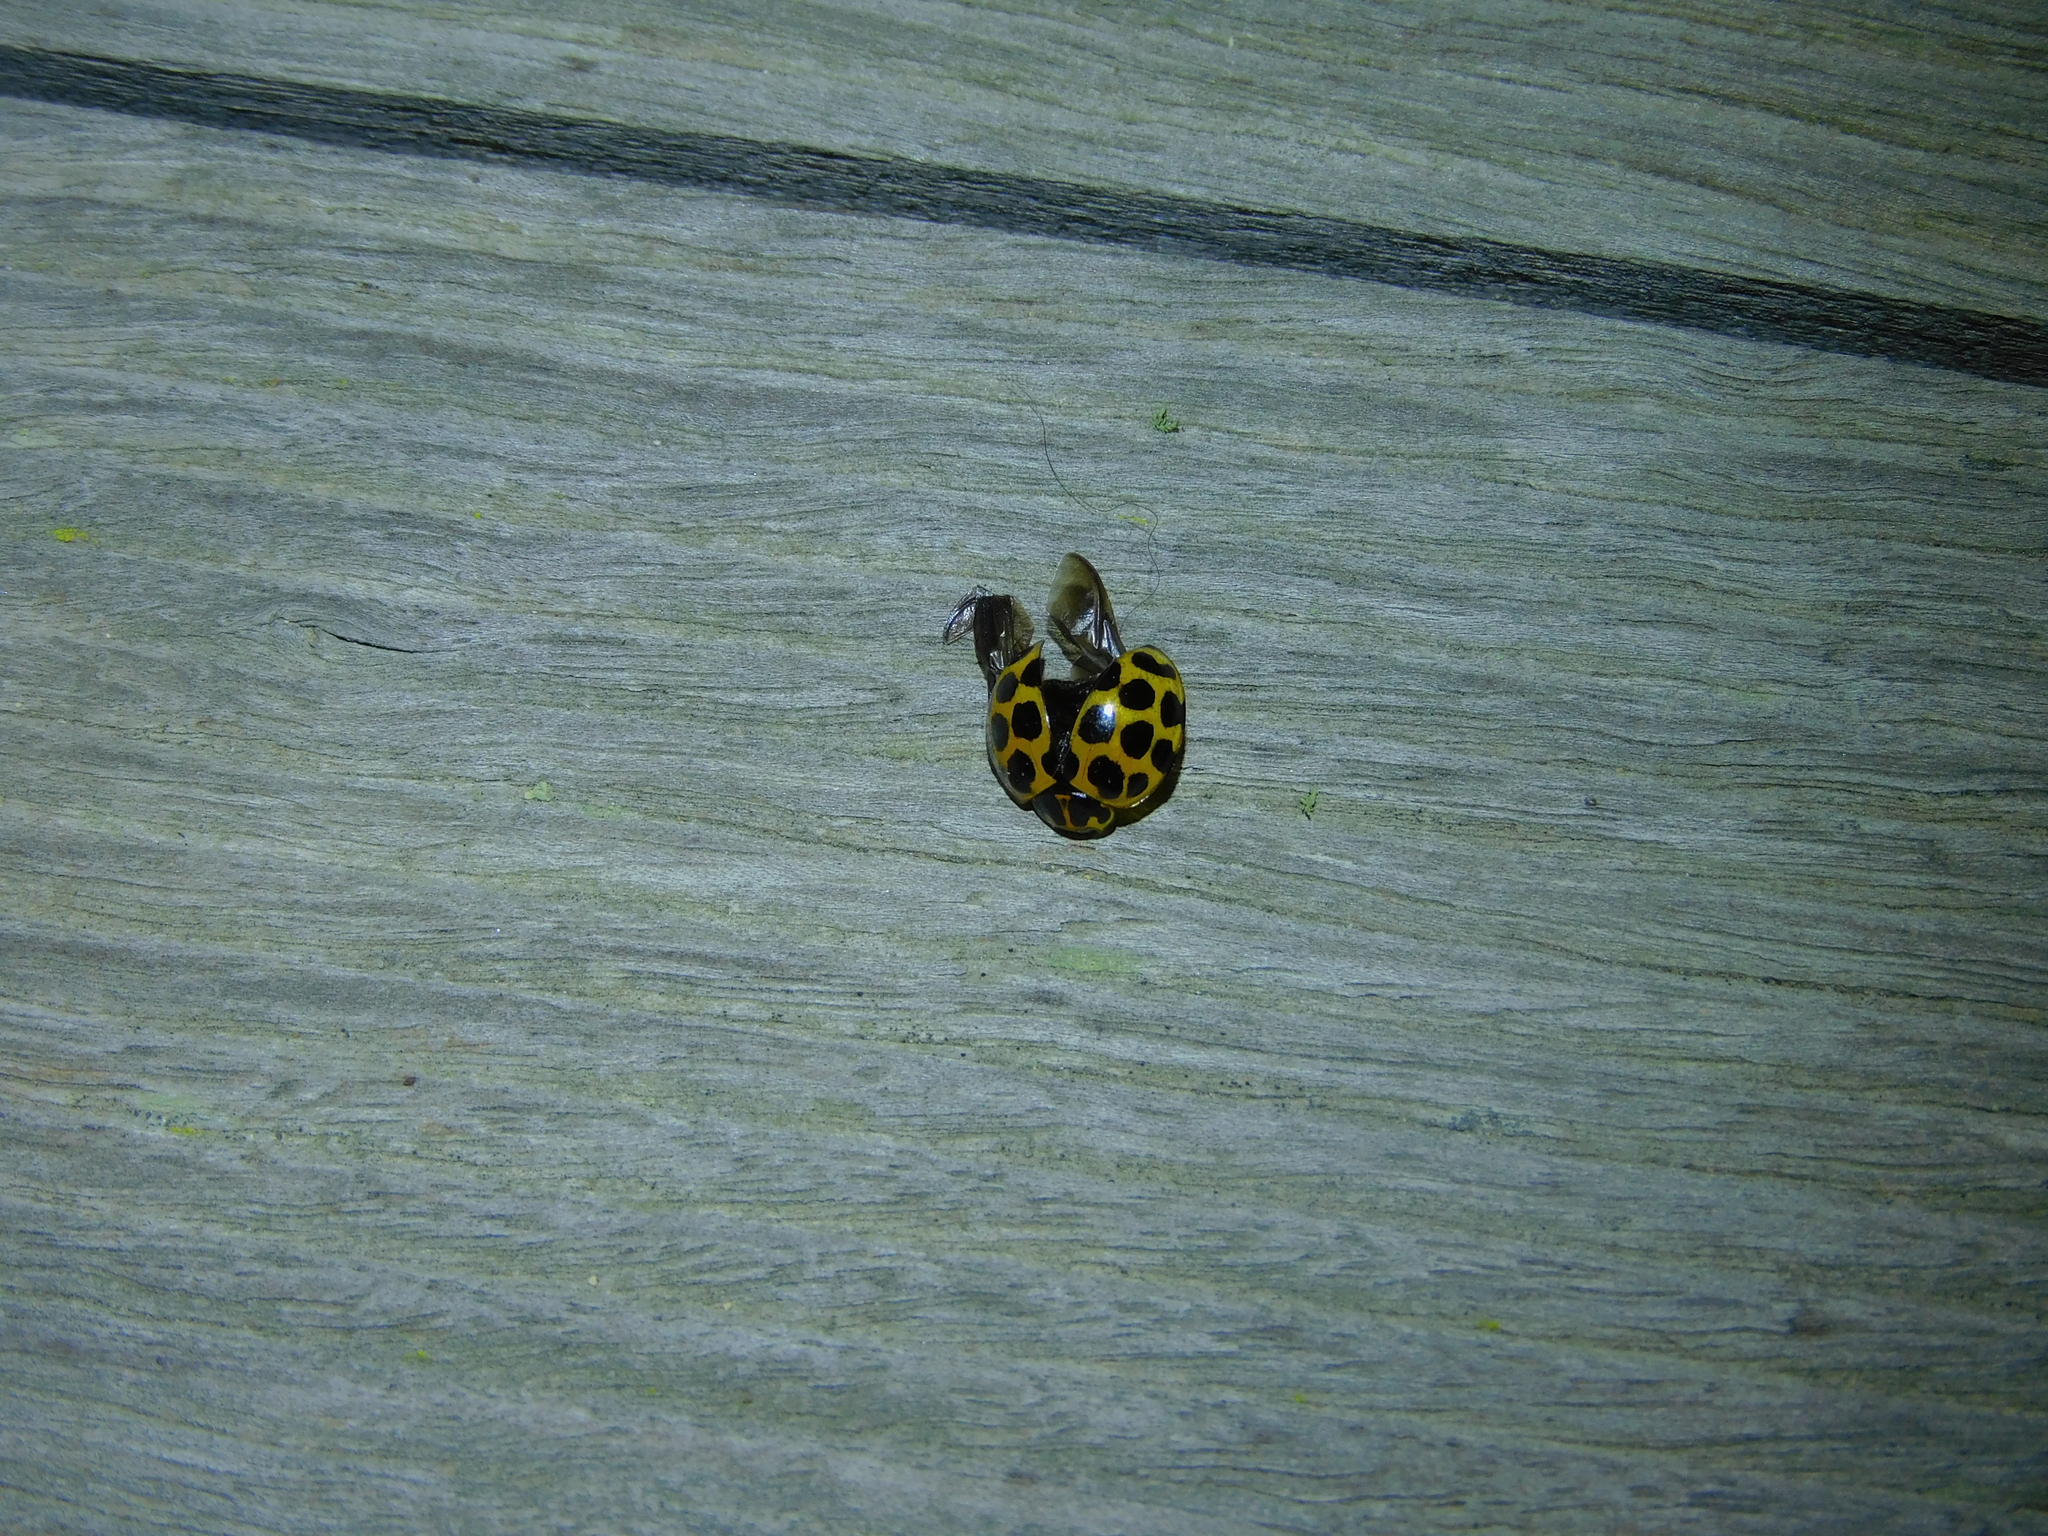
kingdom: Animalia
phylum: Arthropoda
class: Insecta
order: Coleoptera
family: Coccinellidae
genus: Harmonia
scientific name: Harmonia conformis
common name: Common spotted ladybird beetle
